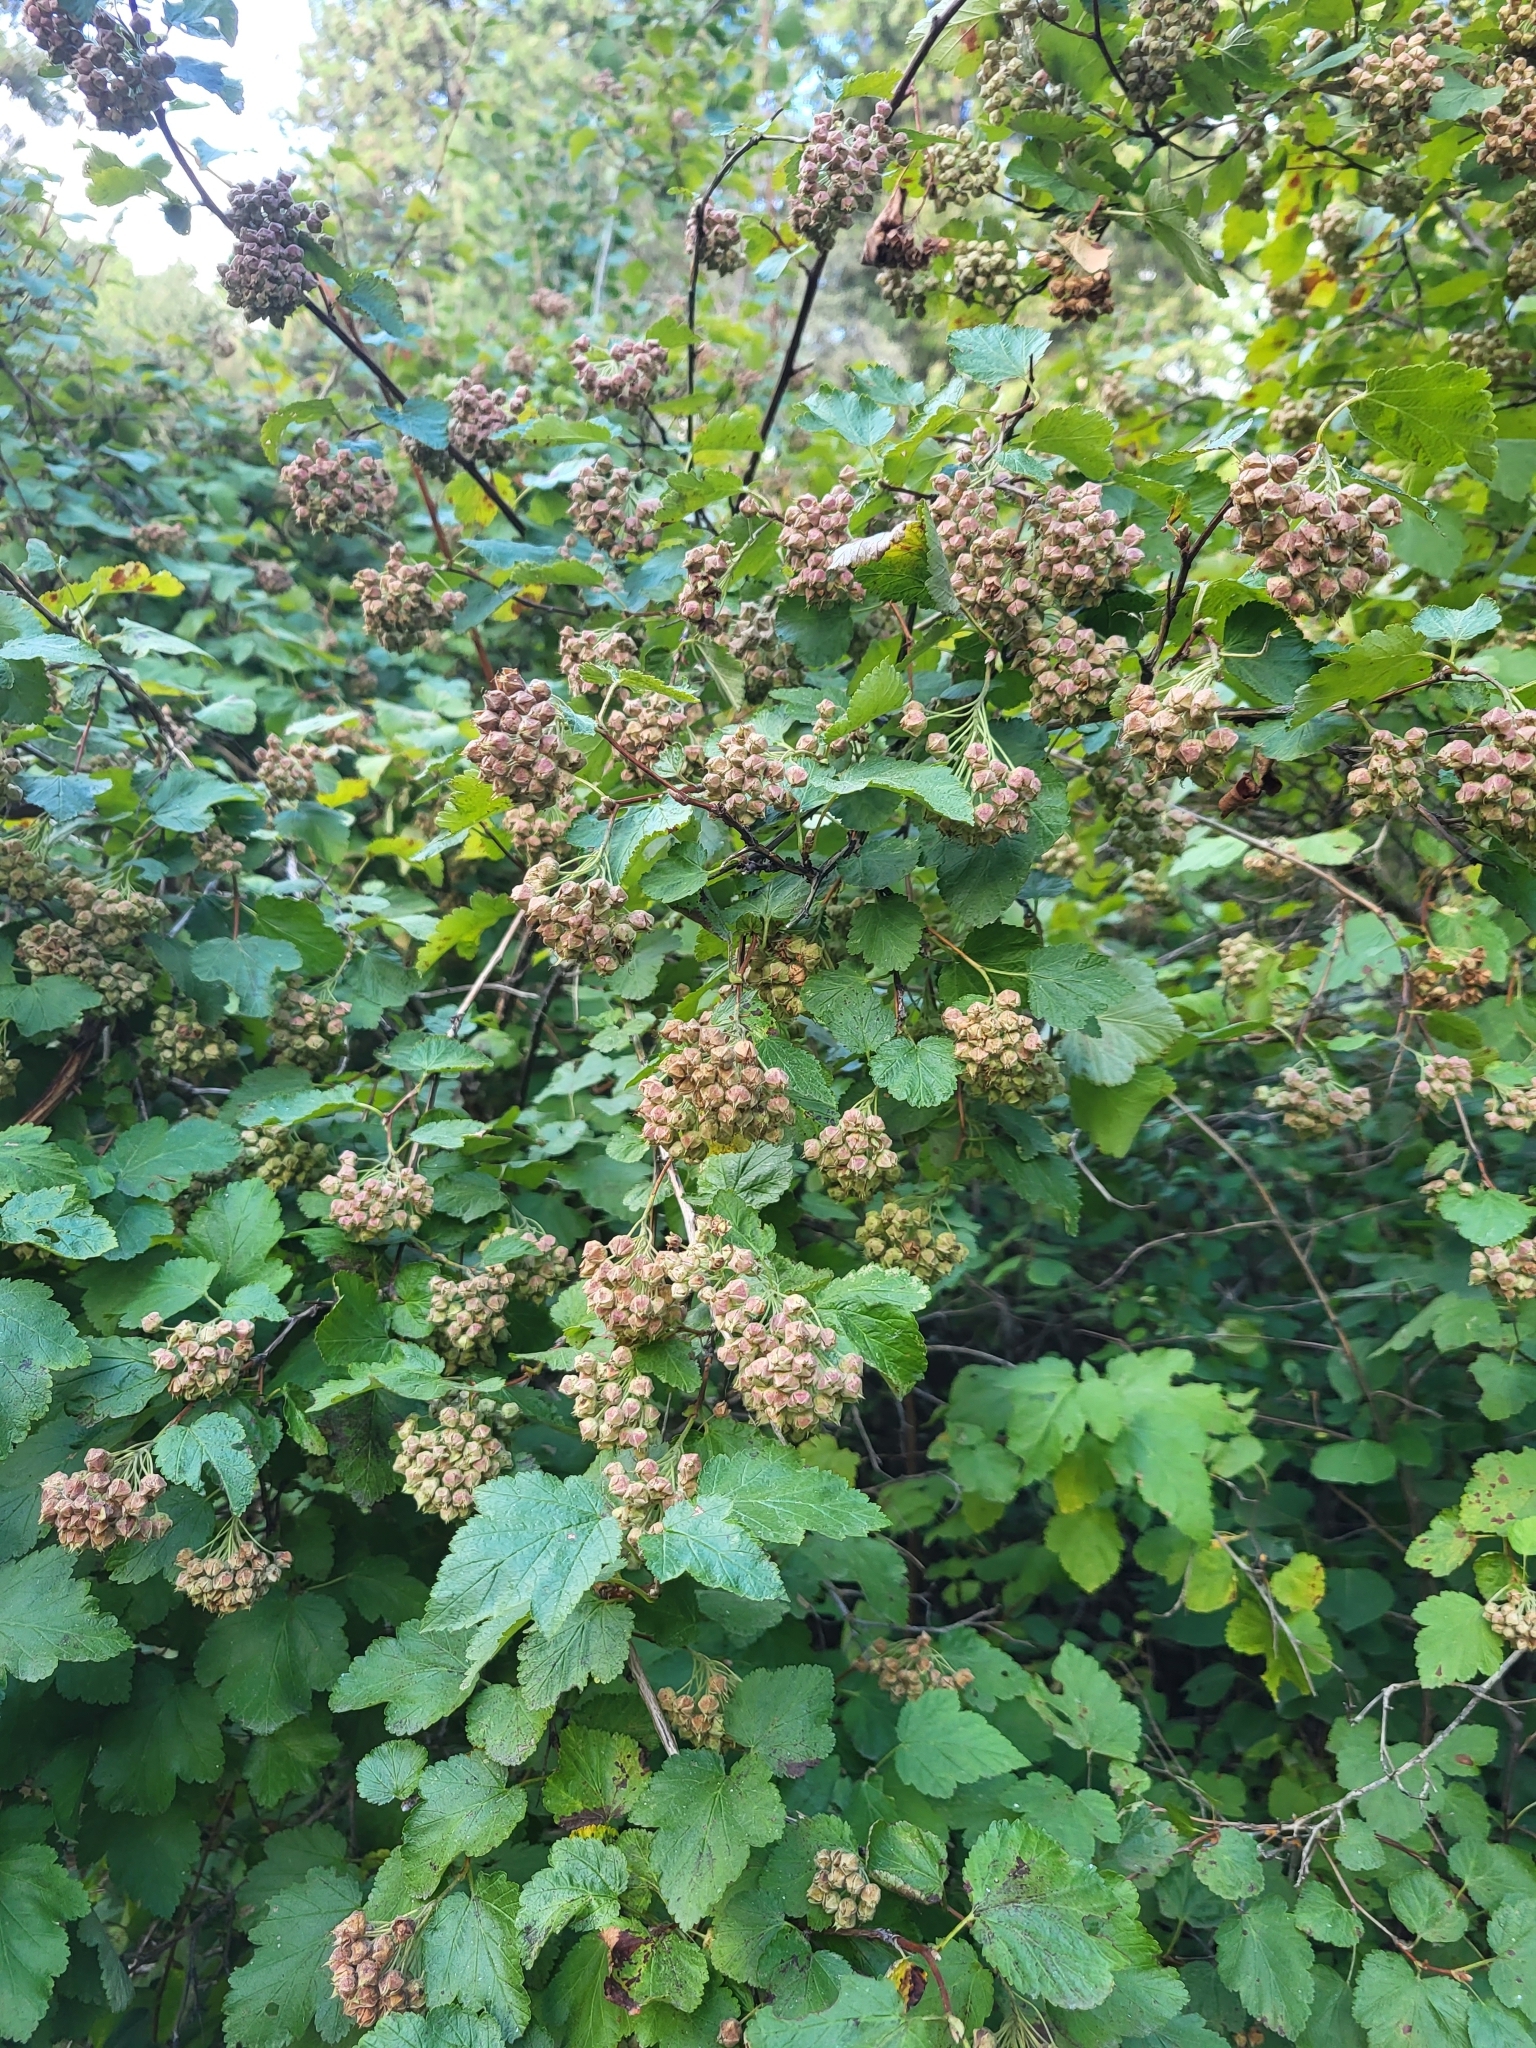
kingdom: Plantae
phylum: Tracheophyta
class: Magnoliopsida
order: Rosales
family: Rosaceae
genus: Physocarpus
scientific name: Physocarpus malvaceus
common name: Mallow ninebark
